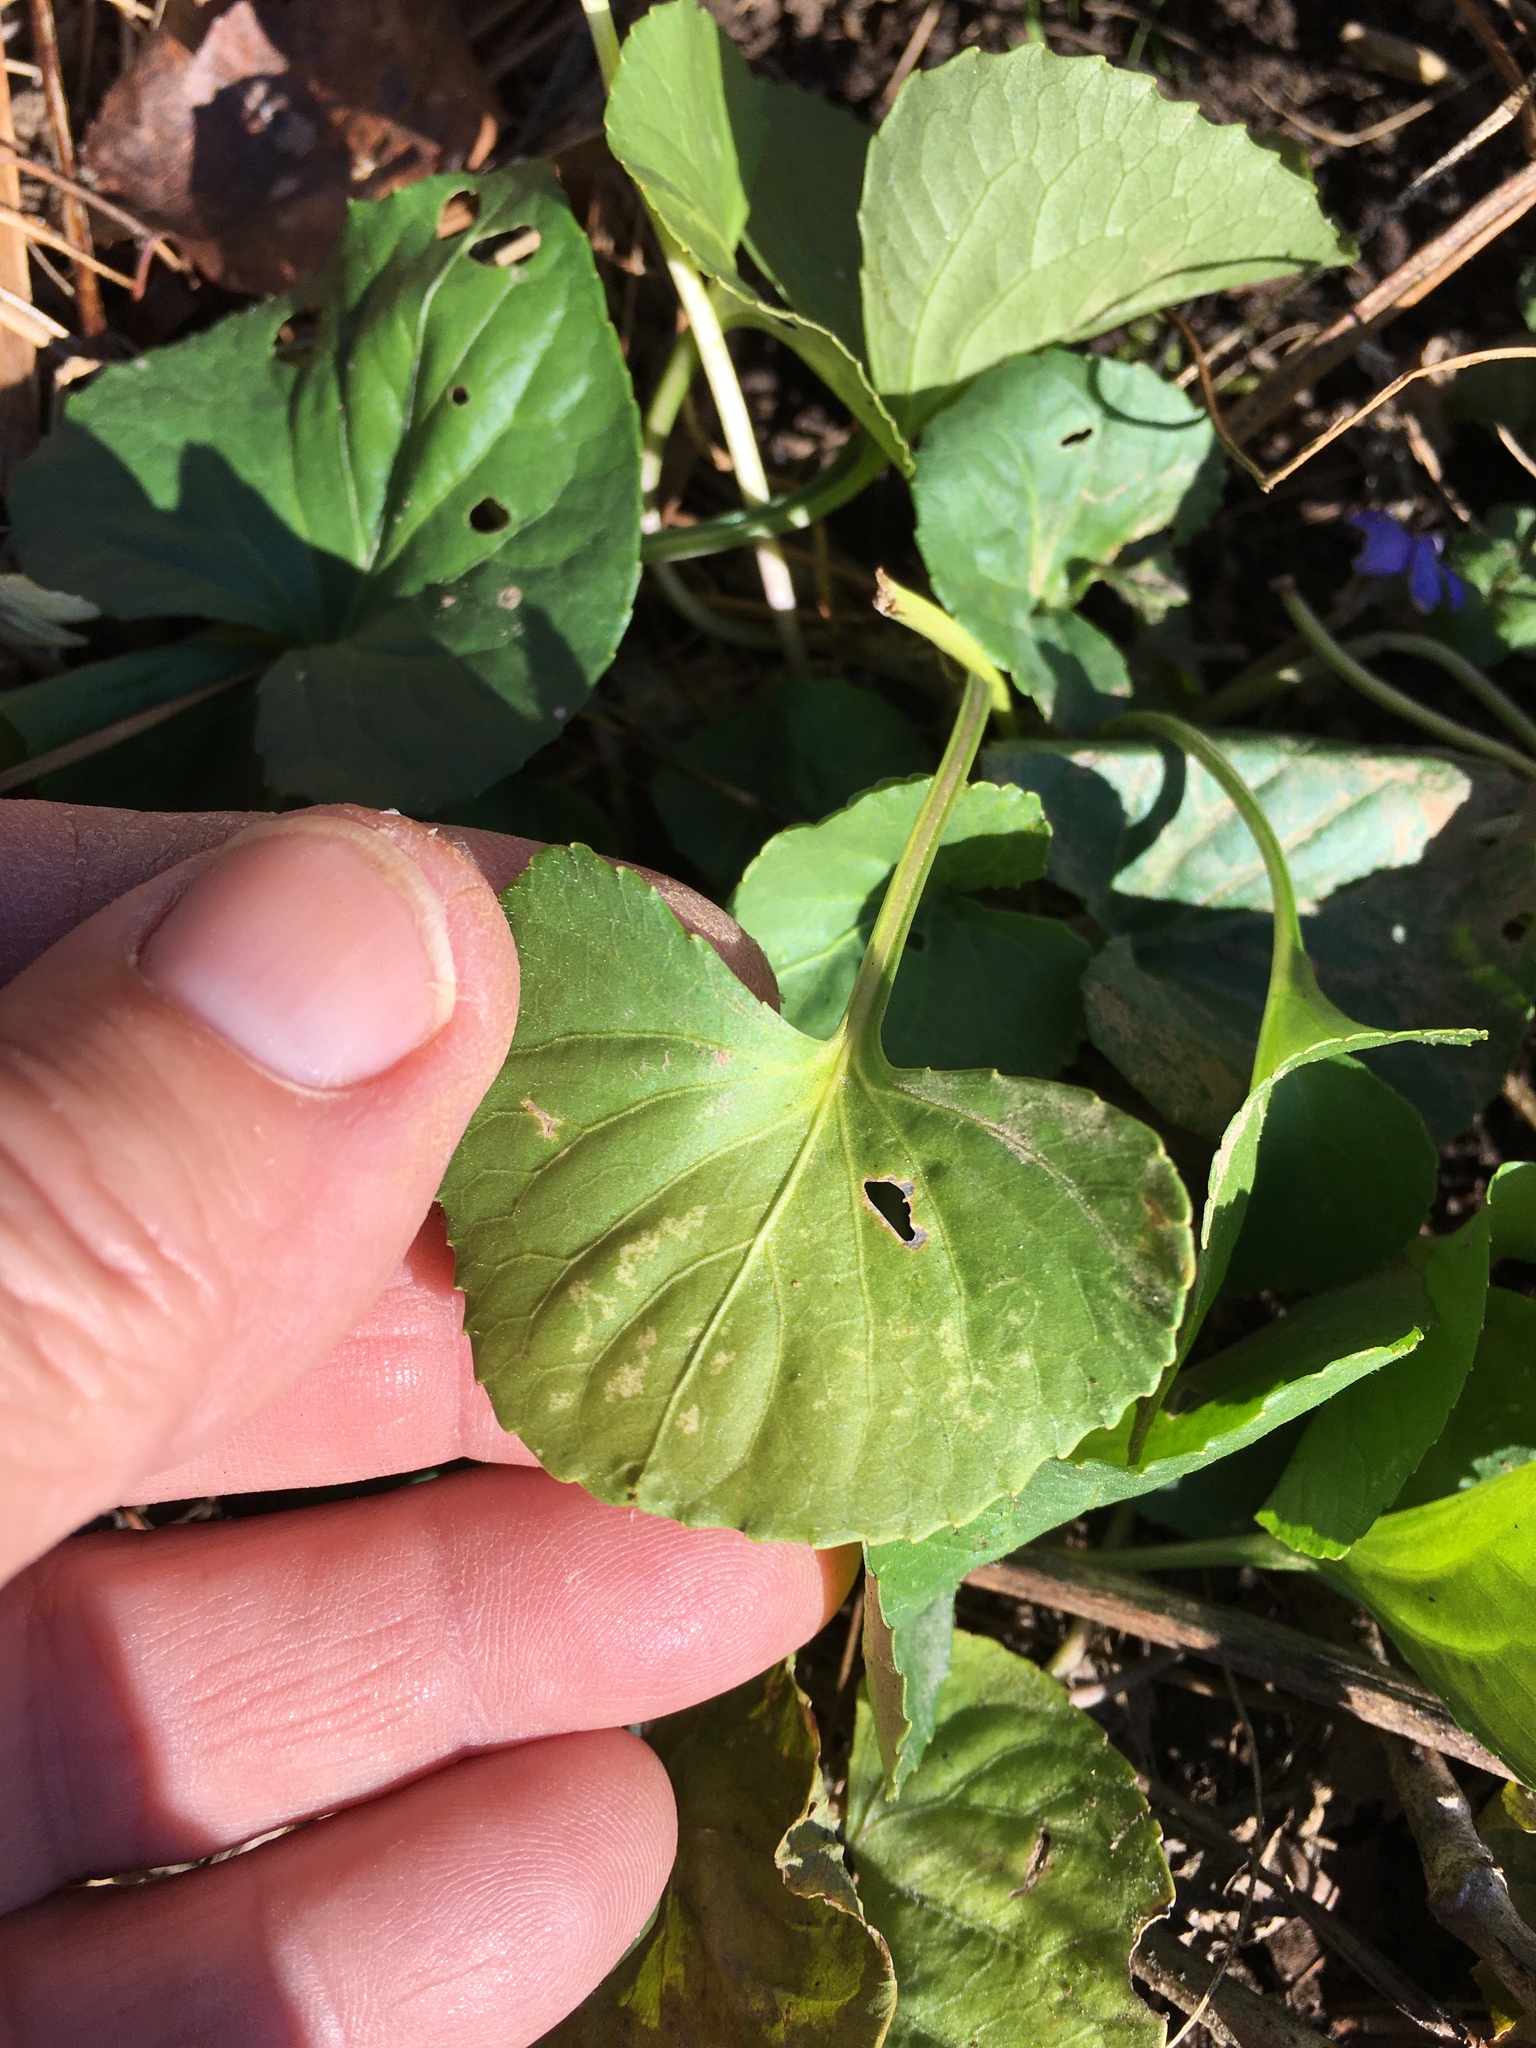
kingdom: Plantae
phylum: Tracheophyta
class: Magnoliopsida
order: Malpighiales
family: Violaceae
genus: Viola
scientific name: Viola sororia
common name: Dooryard violet
